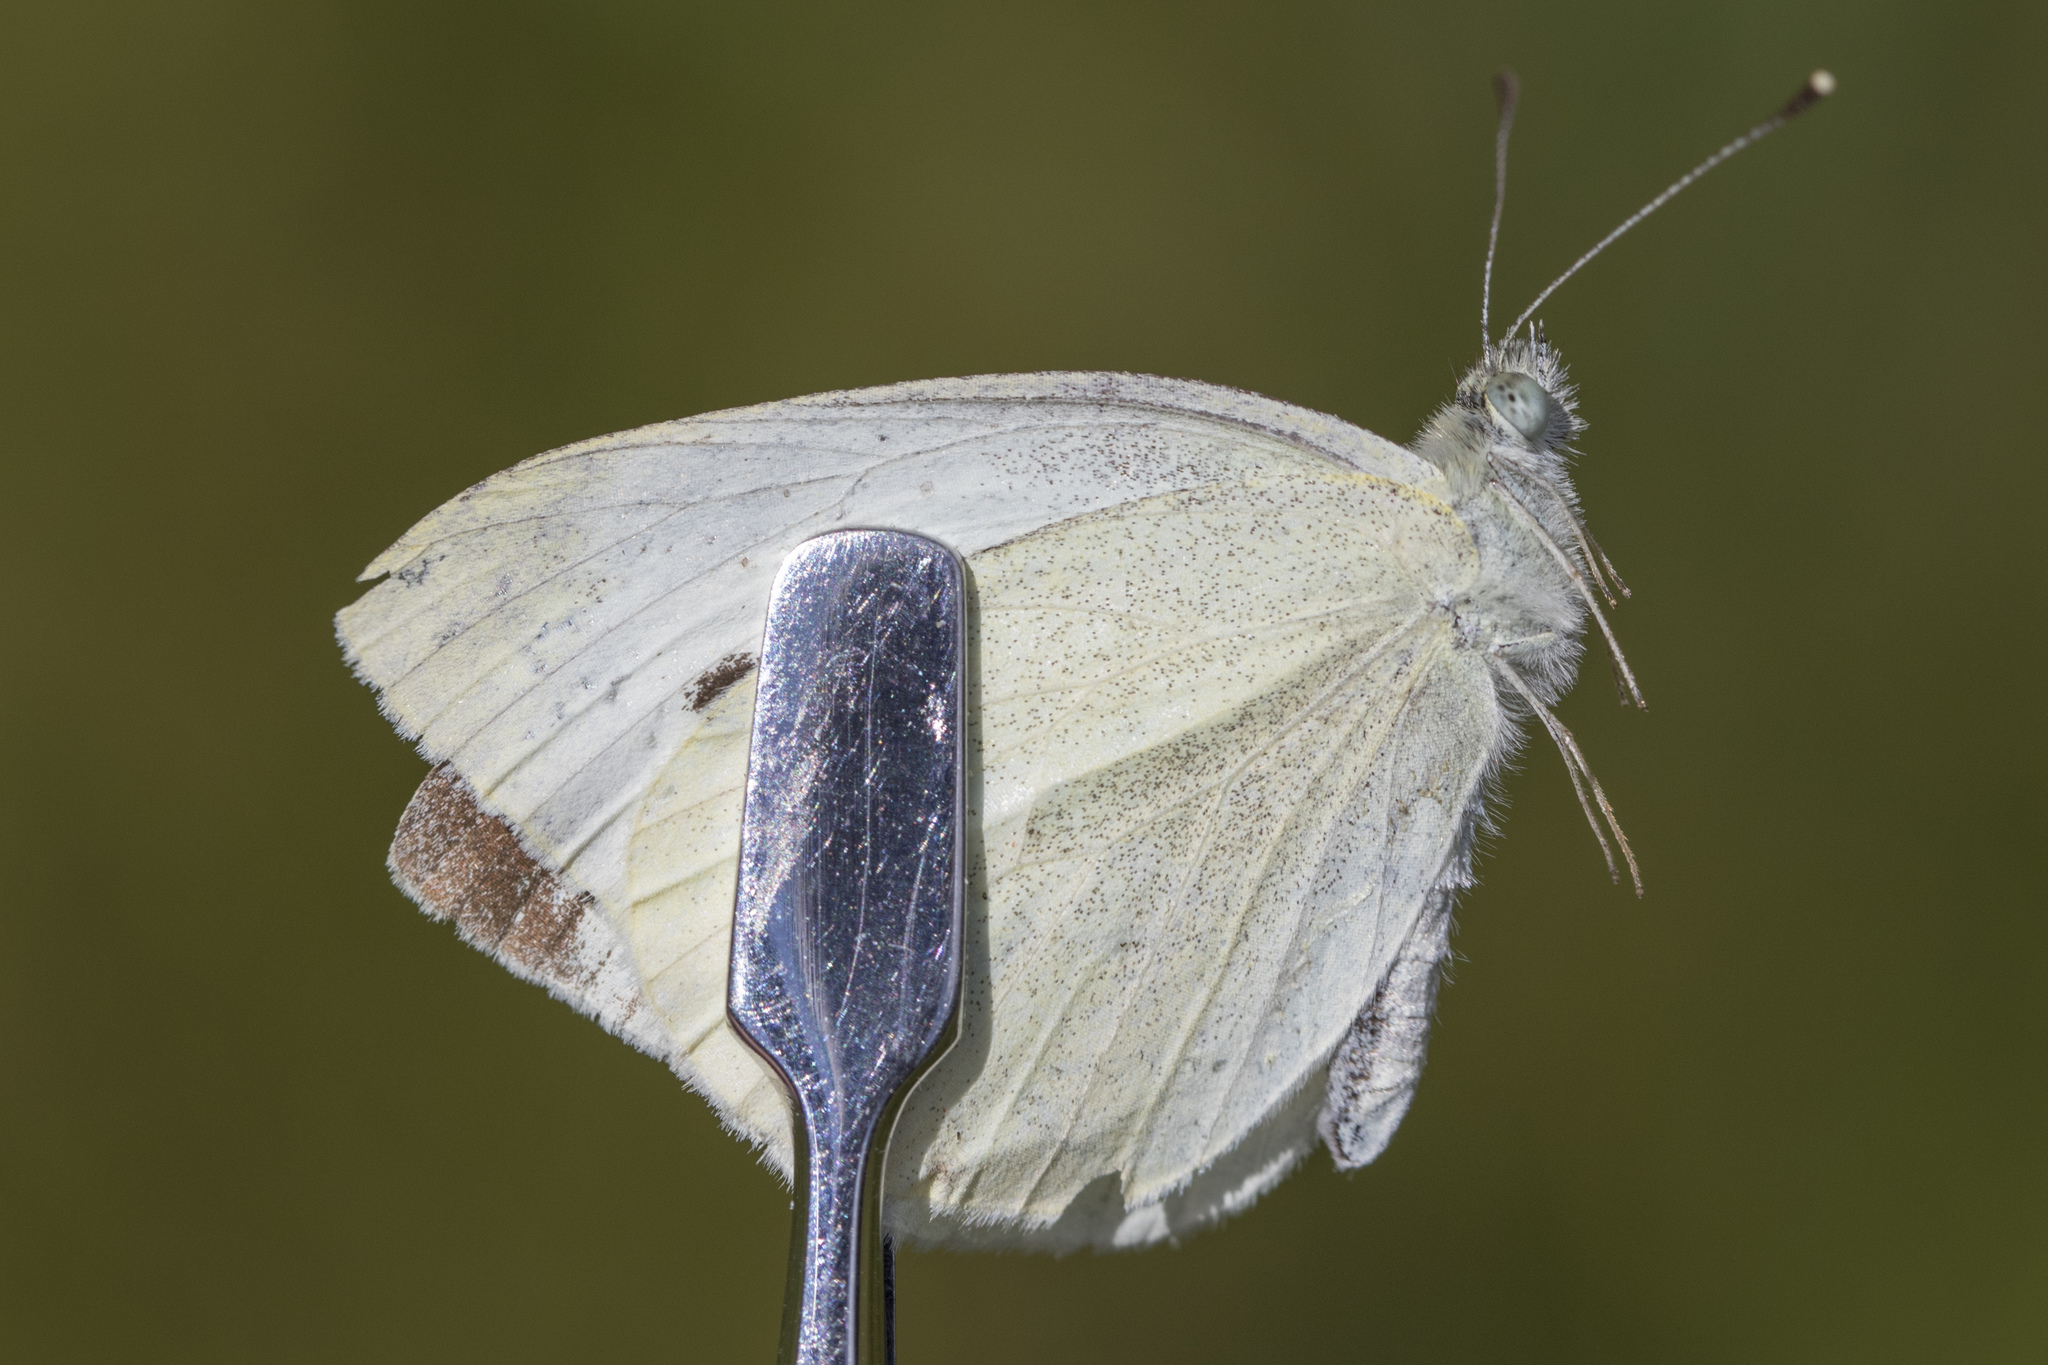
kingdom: Animalia
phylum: Arthropoda
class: Insecta
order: Lepidoptera
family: Pieridae
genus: Pieris
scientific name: Pieris rapae
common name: Small white
